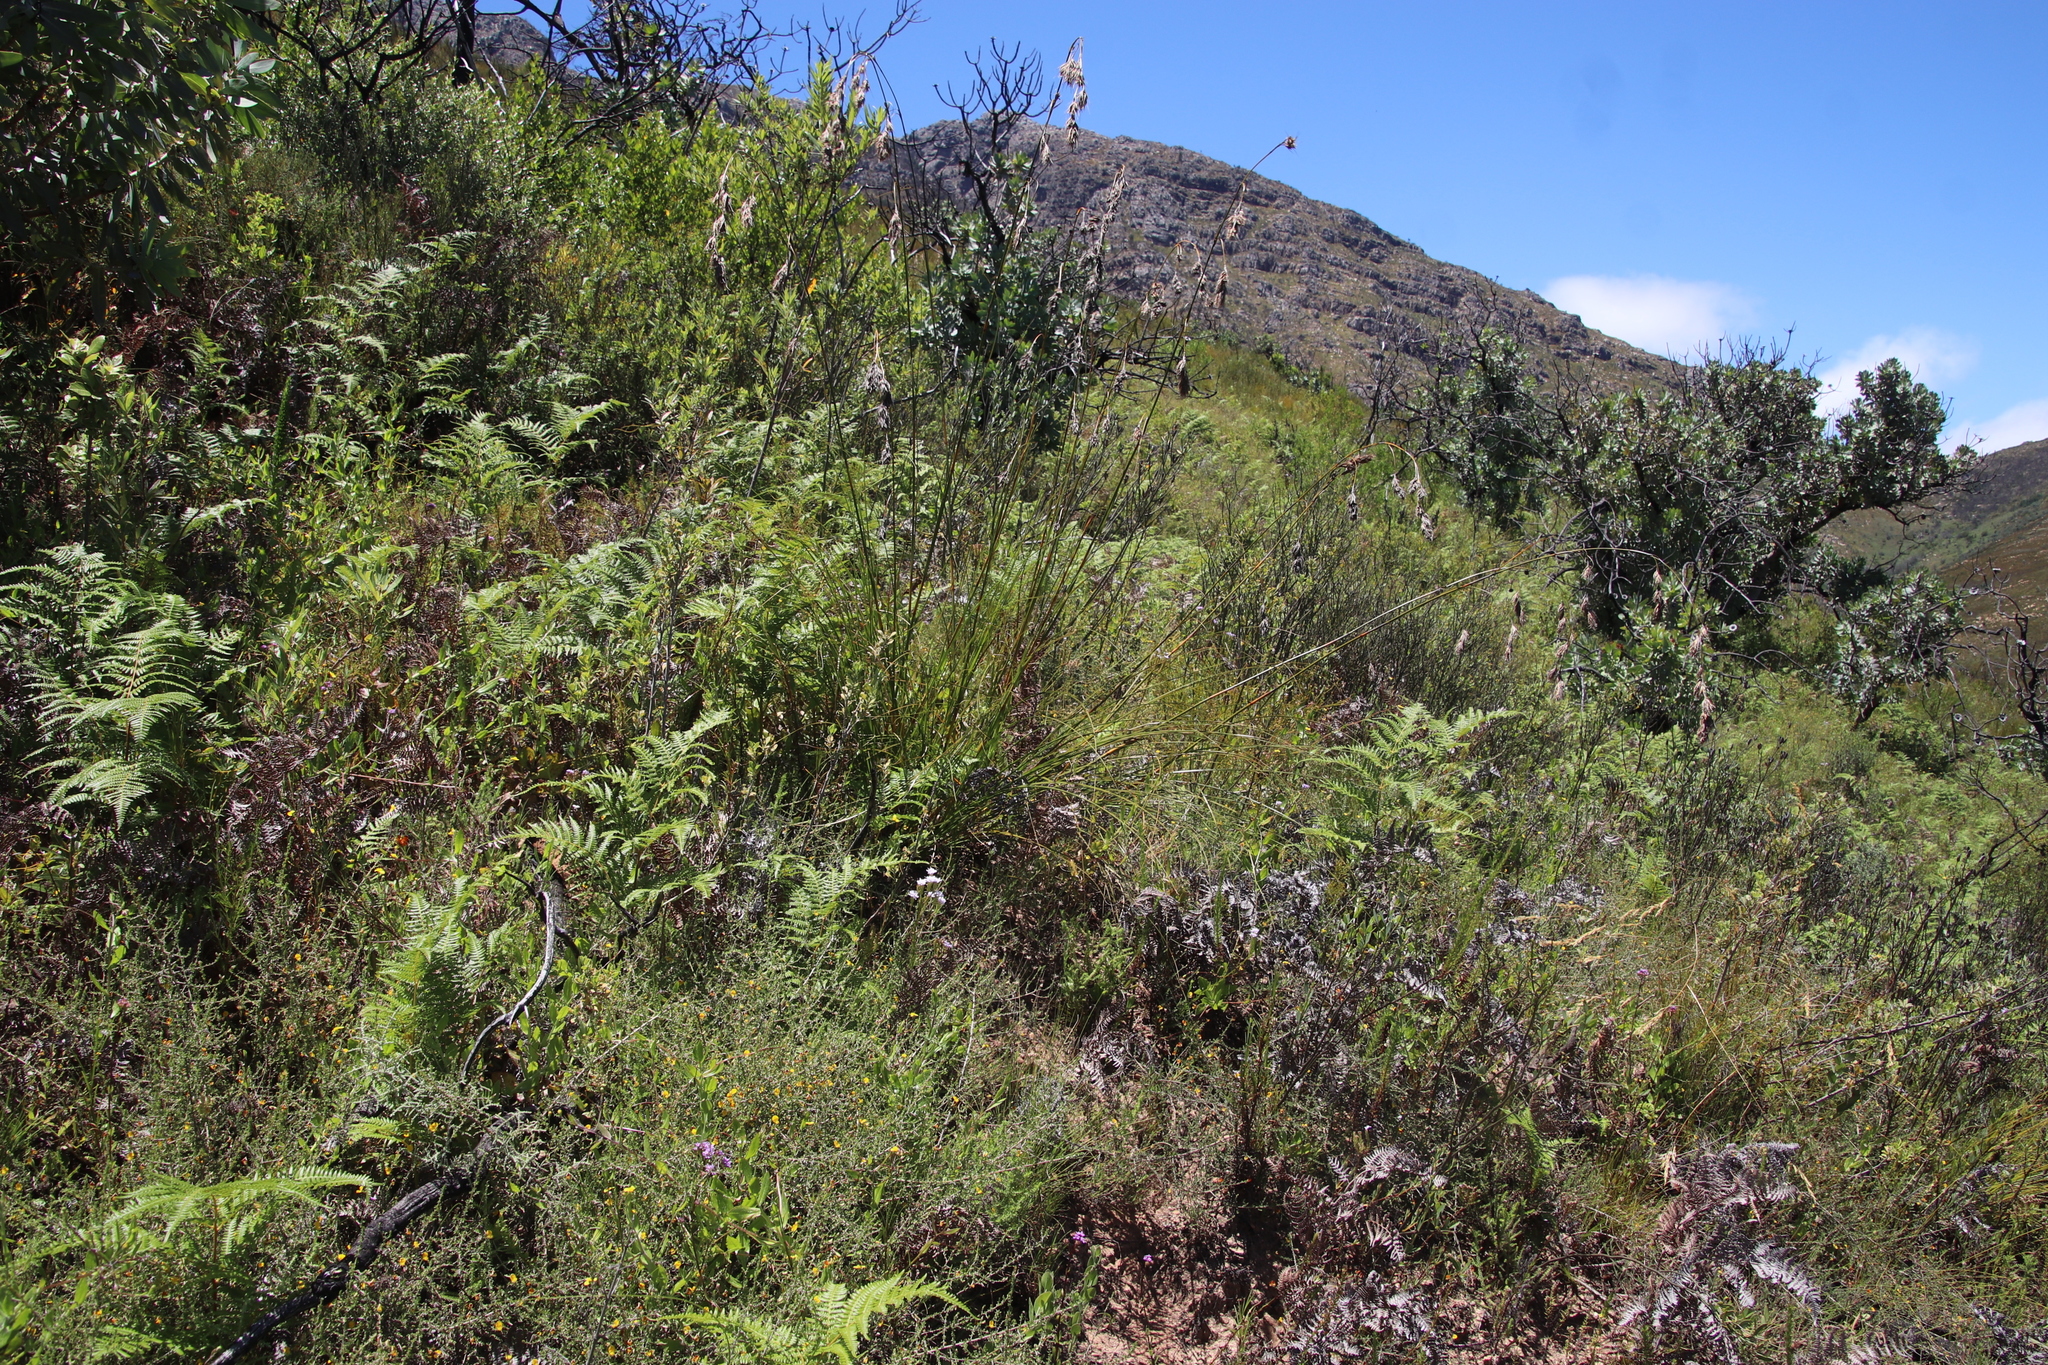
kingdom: Plantae
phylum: Tracheophyta
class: Liliopsida
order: Poales
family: Cyperaceae
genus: Tetraria
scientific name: Tetraria bromoides
